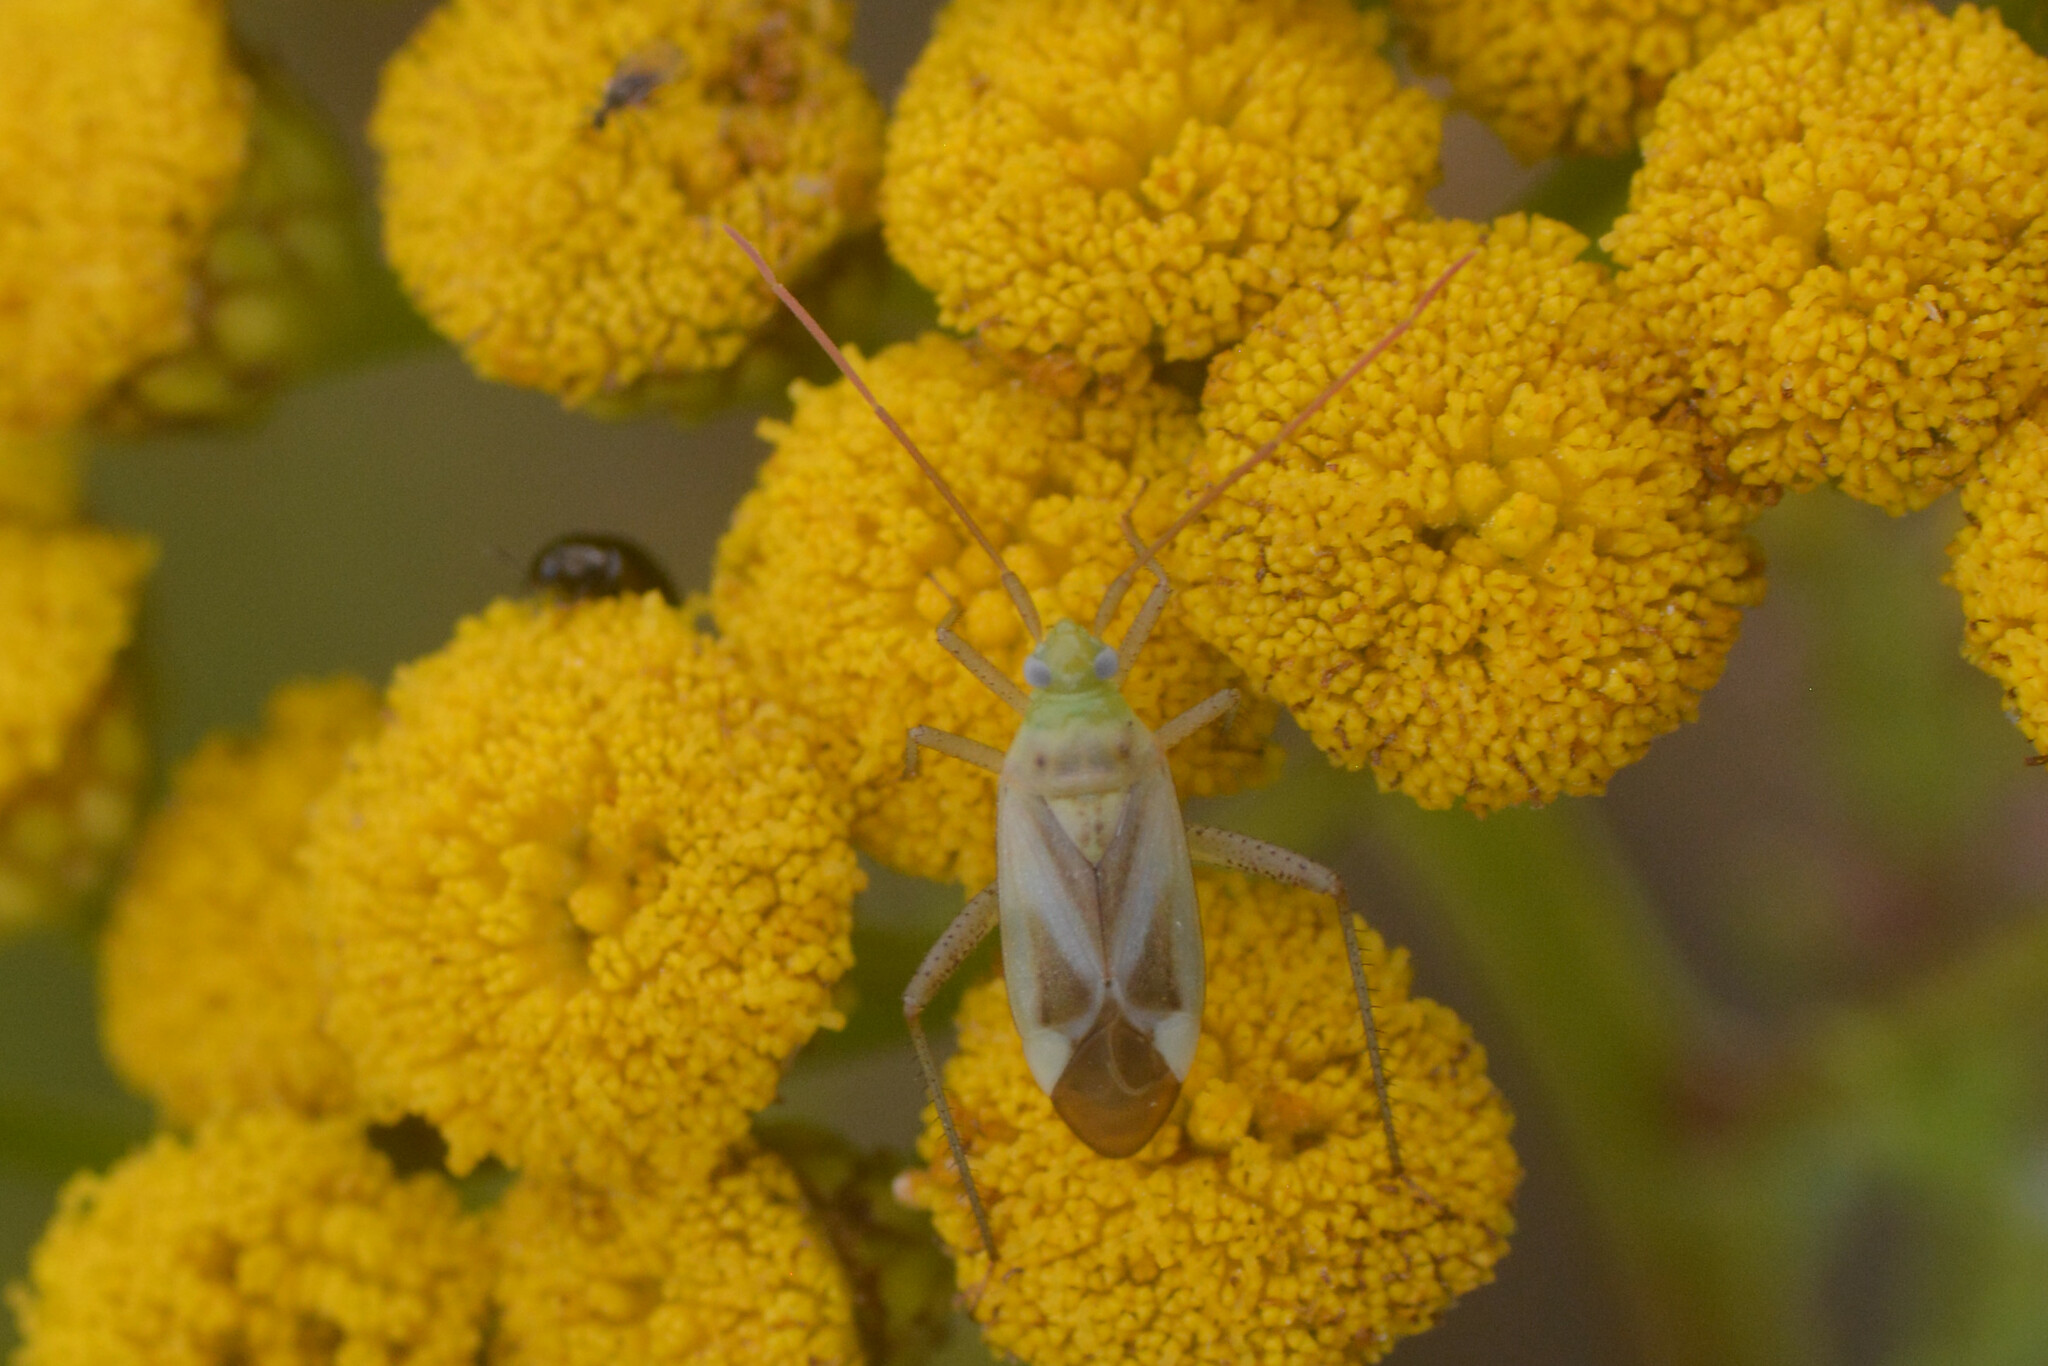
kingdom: Animalia
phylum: Arthropoda
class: Insecta
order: Hemiptera
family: Miridae
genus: Adelphocoris
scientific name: Adelphocoris lineolatus
